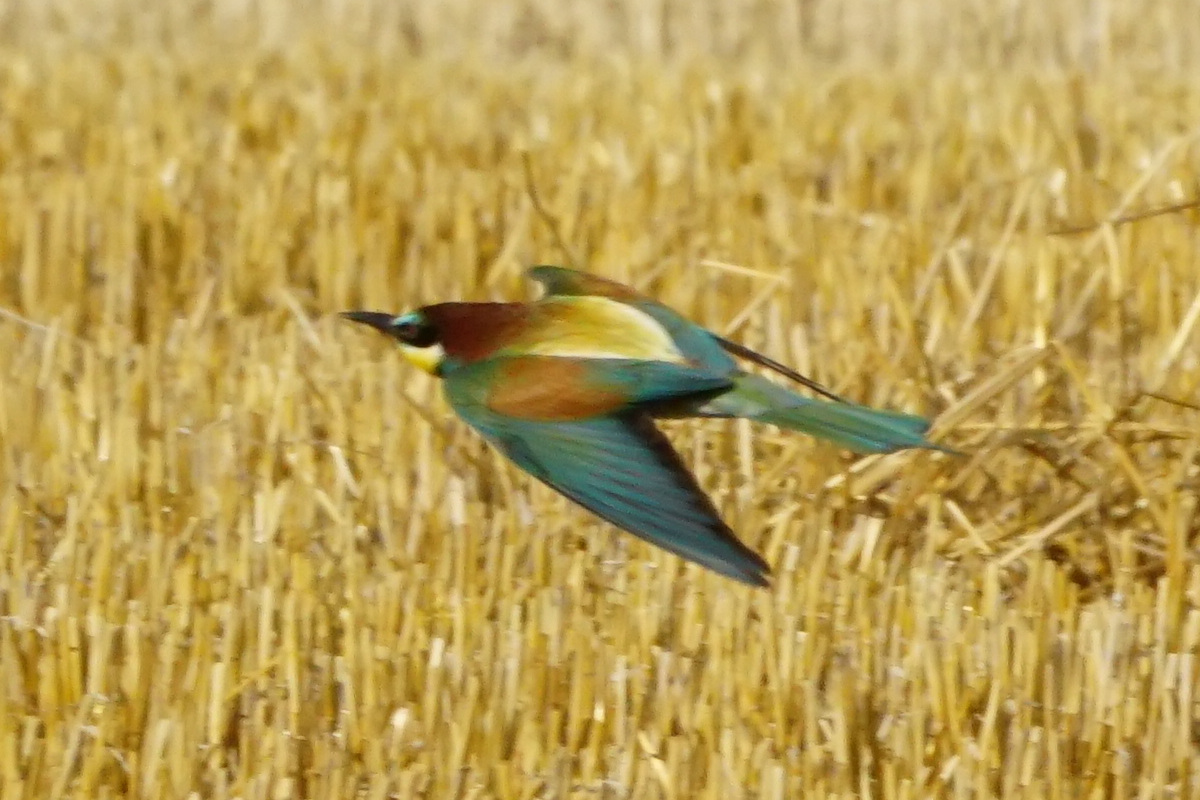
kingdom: Animalia
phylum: Chordata
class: Aves
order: Coraciiformes
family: Meropidae
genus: Merops
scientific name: Merops apiaster
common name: European bee-eater
